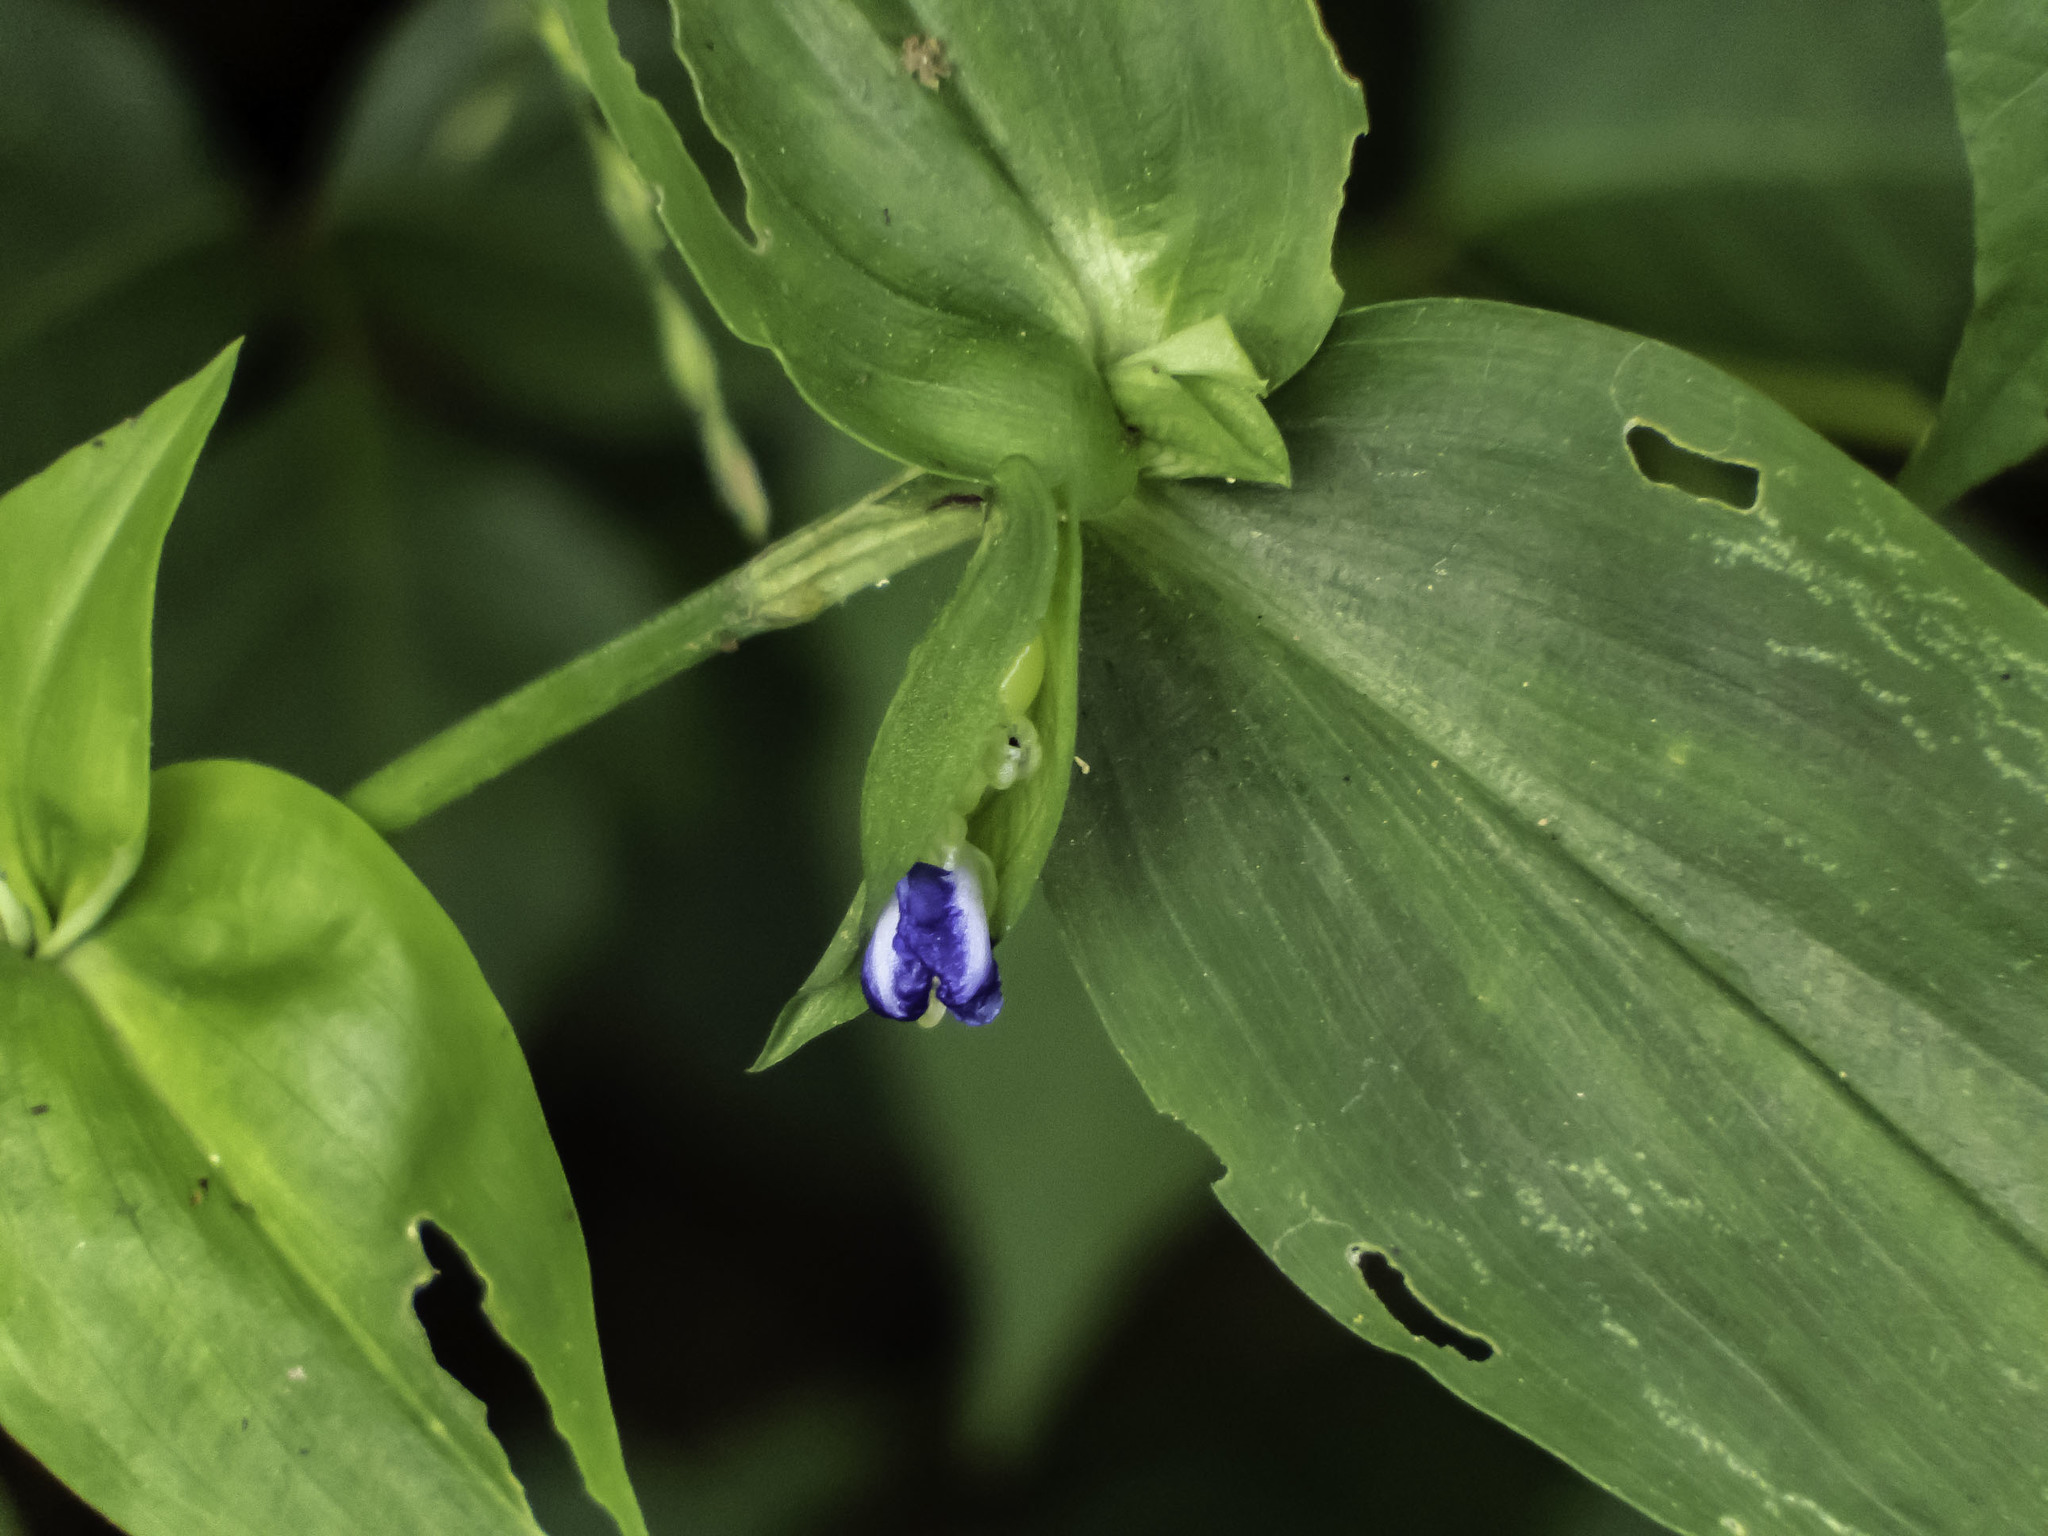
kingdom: Plantae
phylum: Tracheophyta
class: Liliopsida
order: Commelinales
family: Commelinaceae
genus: Commelina
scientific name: Commelina communis
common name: Asiatic dayflower
